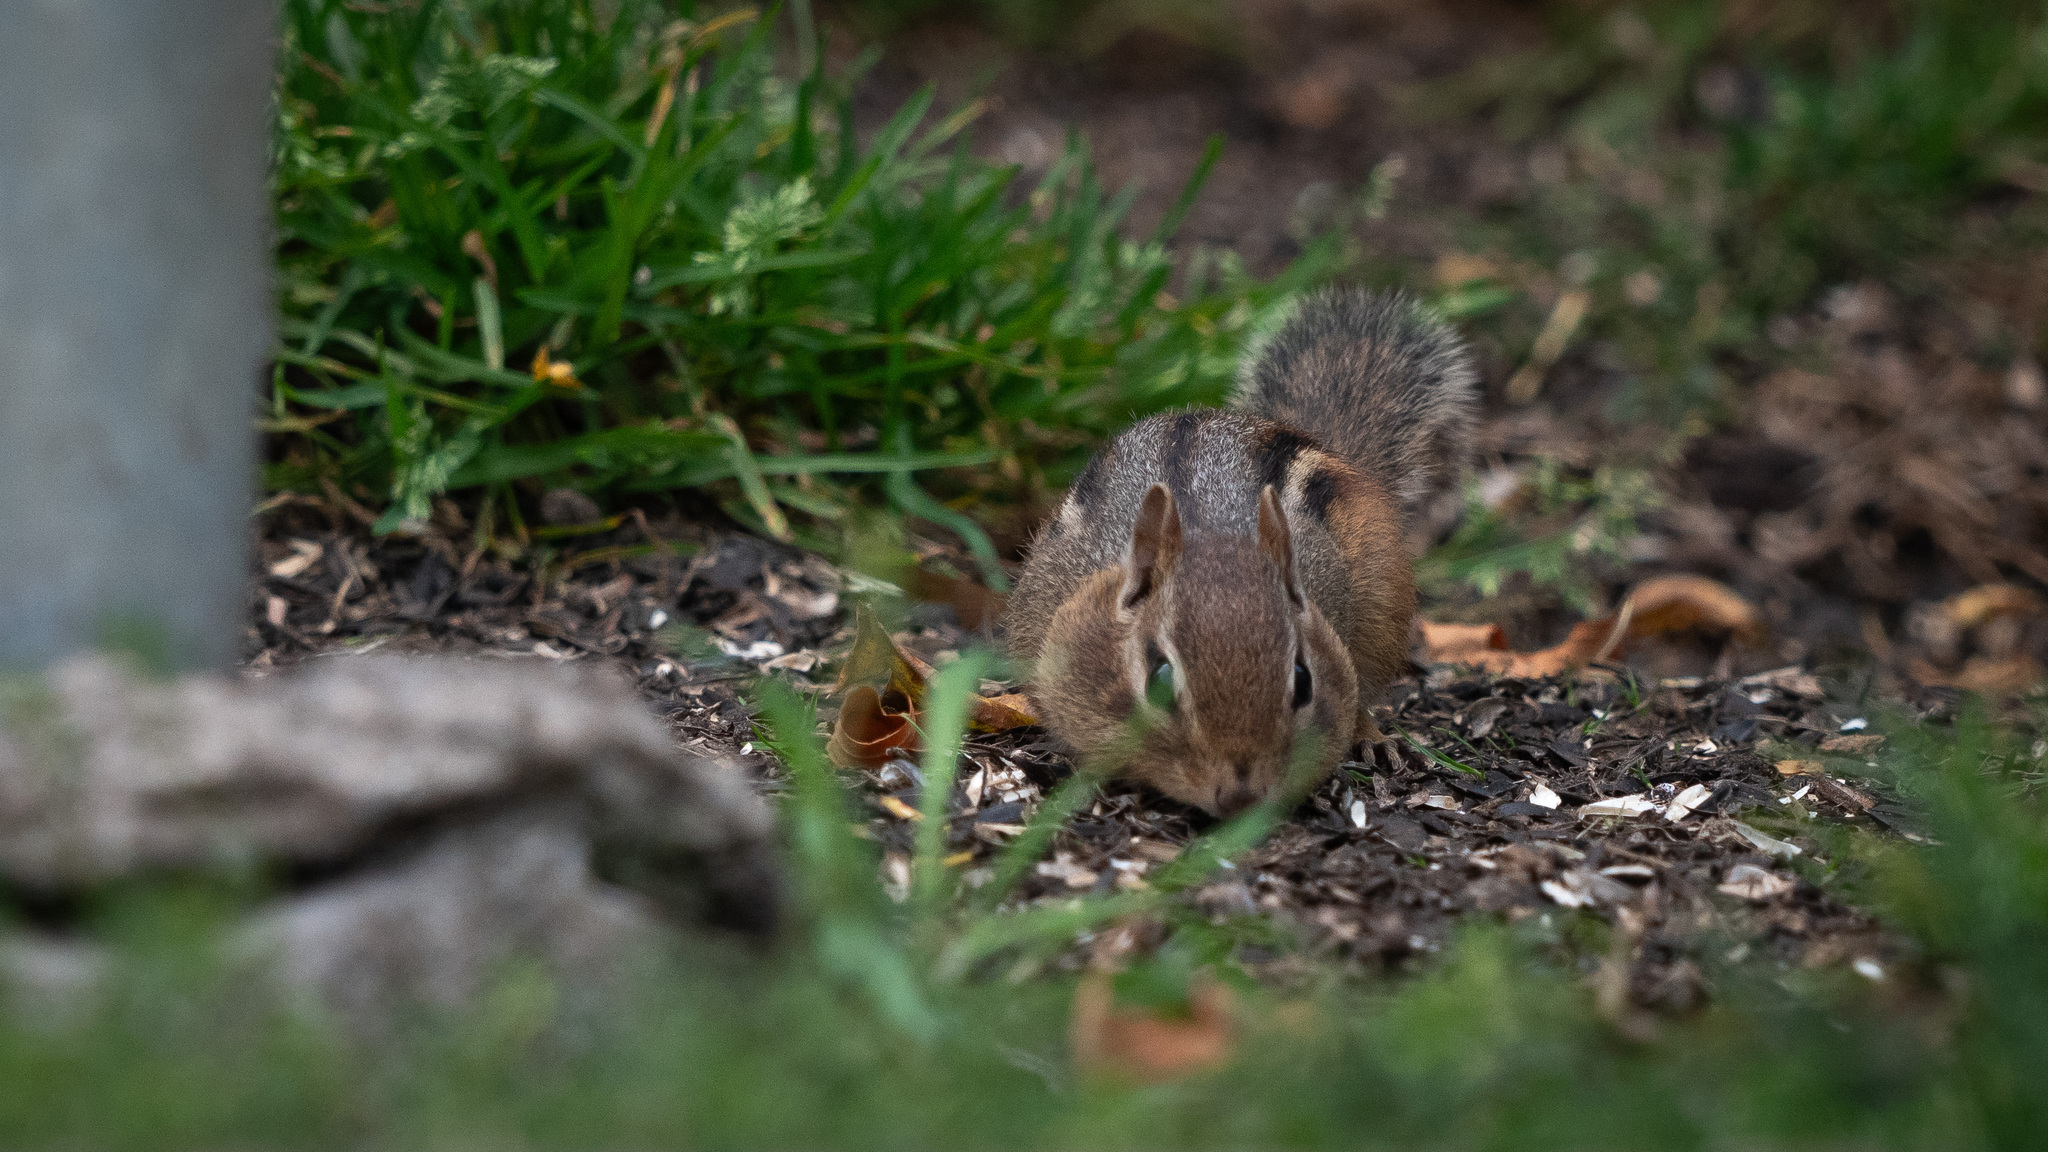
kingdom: Animalia
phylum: Chordata
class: Mammalia
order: Rodentia
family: Sciuridae
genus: Tamias
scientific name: Tamias striatus
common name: Eastern chipmunk
